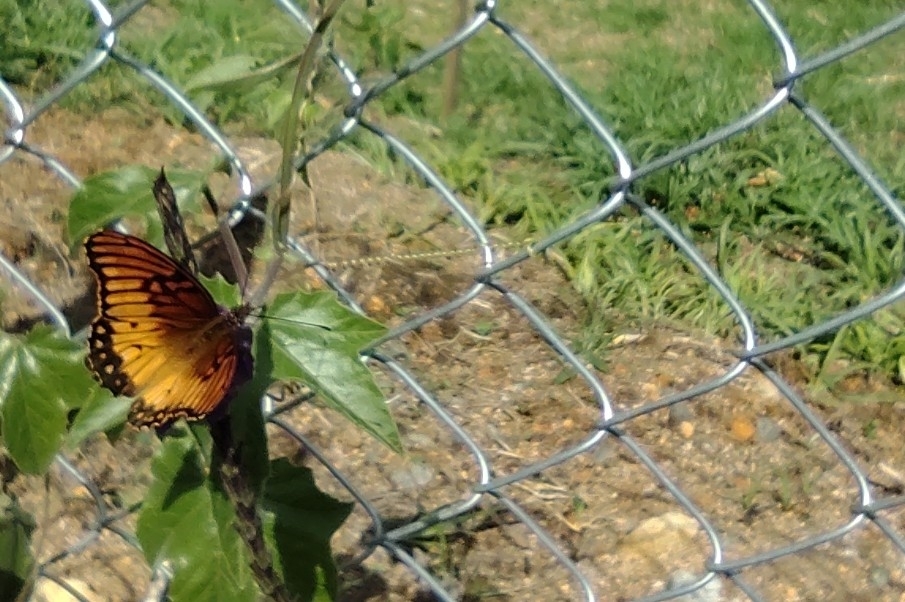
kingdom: Animalia
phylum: Arthropoda
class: Insecta
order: Lepidoptera
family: Nymphalidae
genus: Dione
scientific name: Dione moneta
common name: Mexican silverspot
